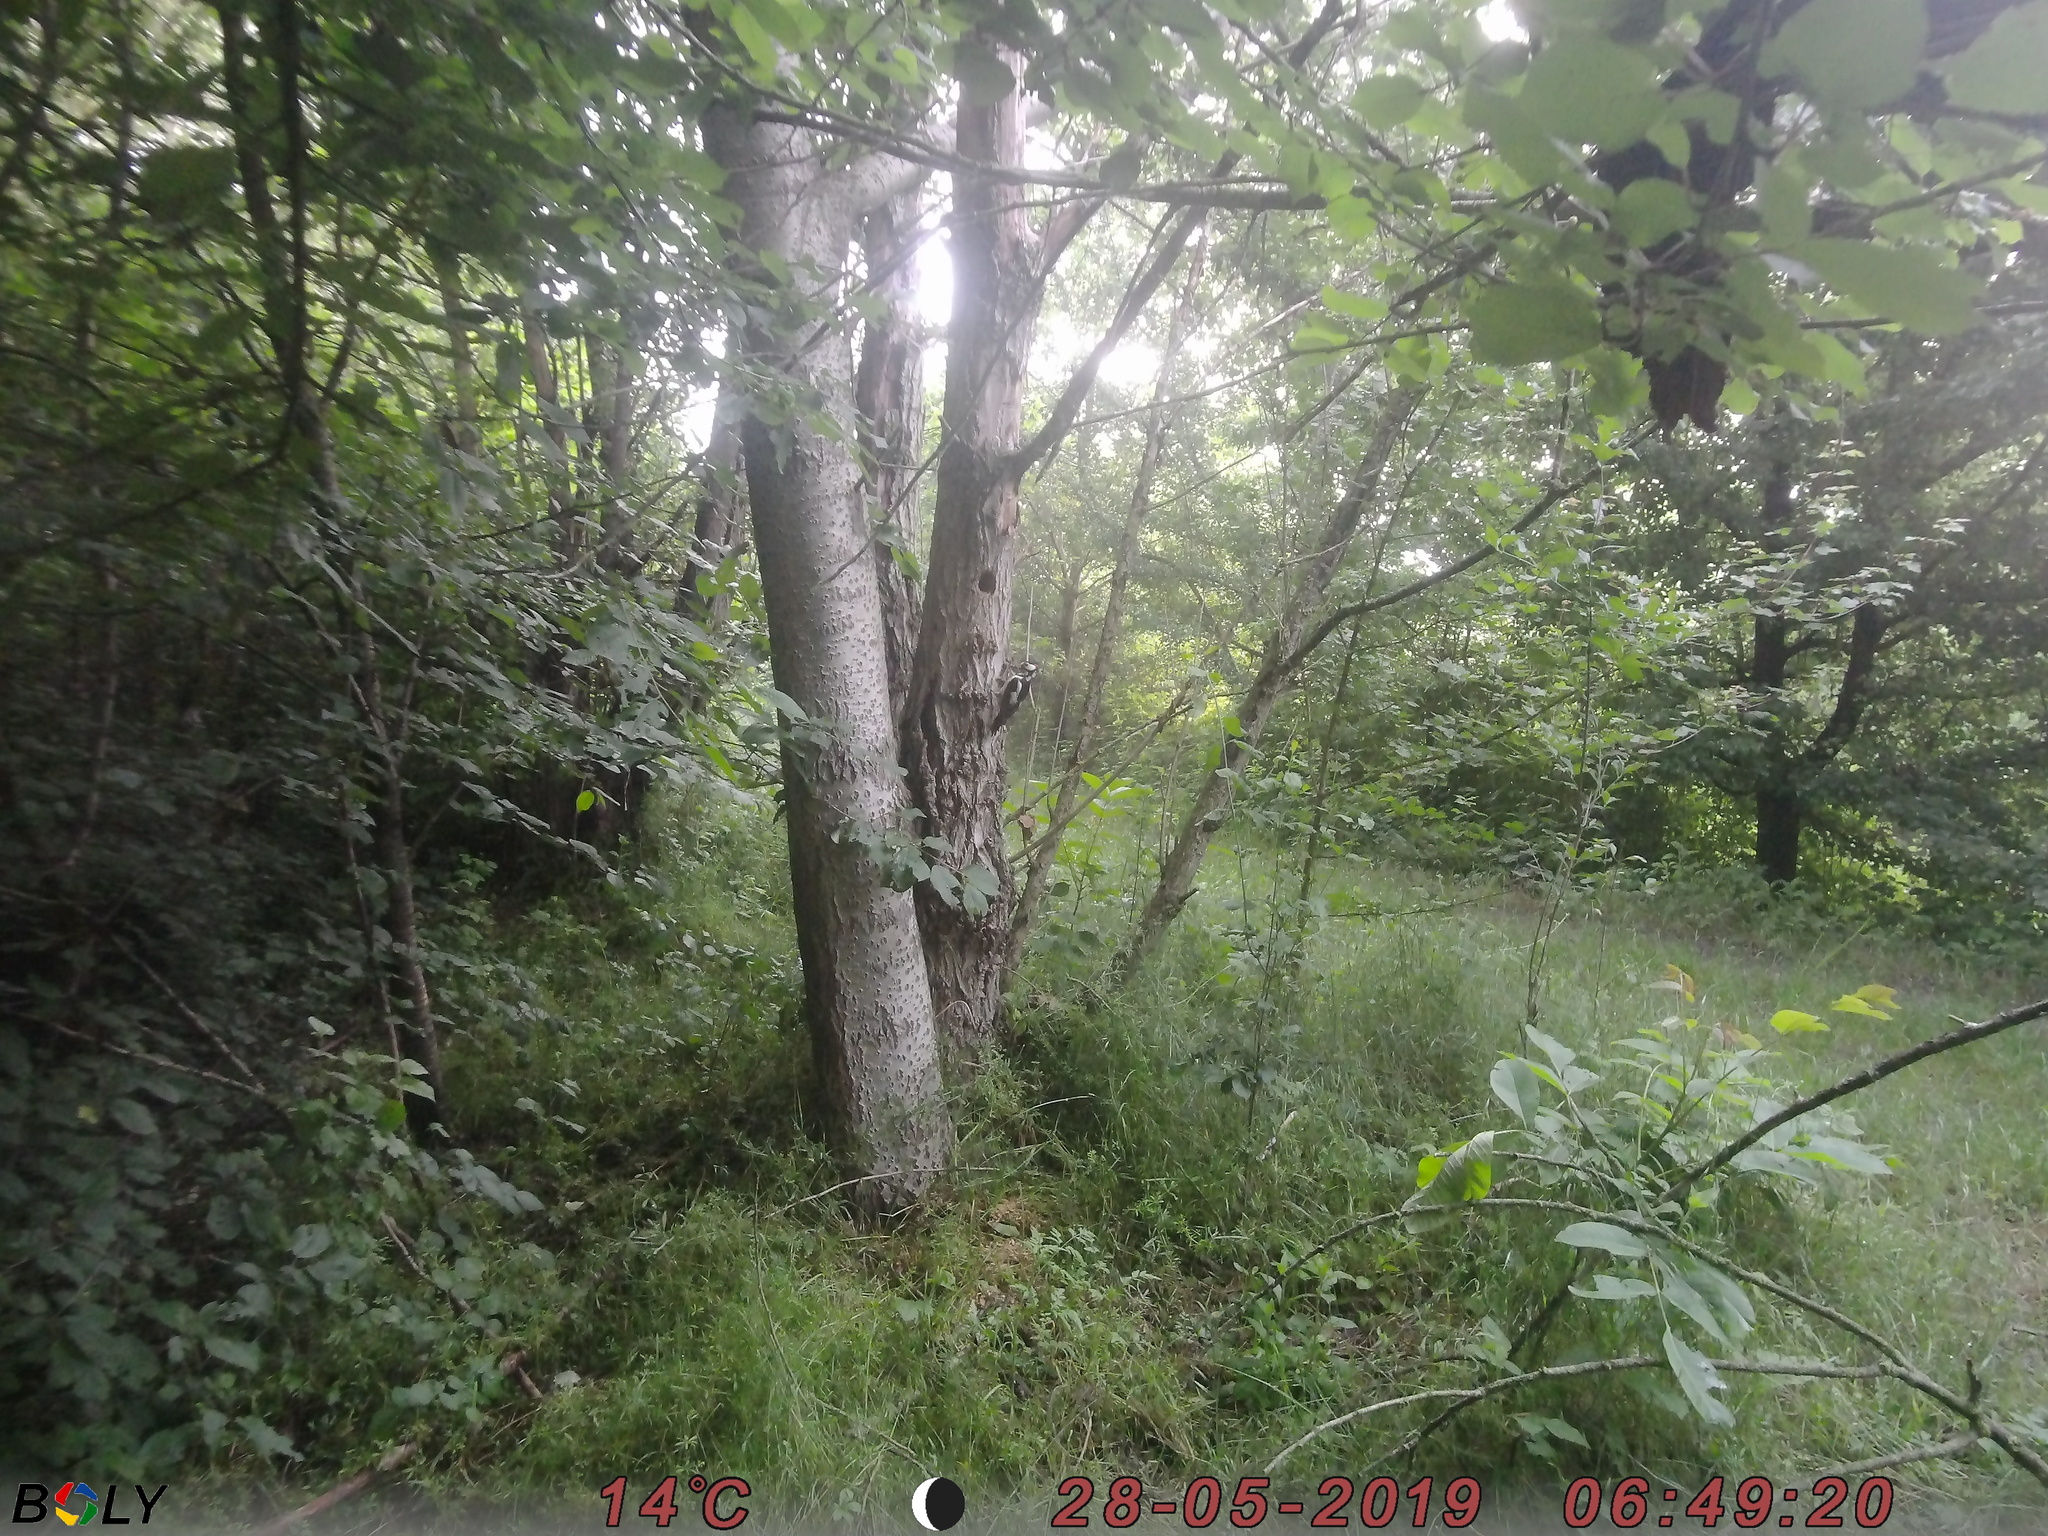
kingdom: Animalia
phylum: Chordata
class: Aves
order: Piciformes
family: Picidae
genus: Dendrocopos
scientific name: Dendrocopos major
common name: Great spotted woodpecker
